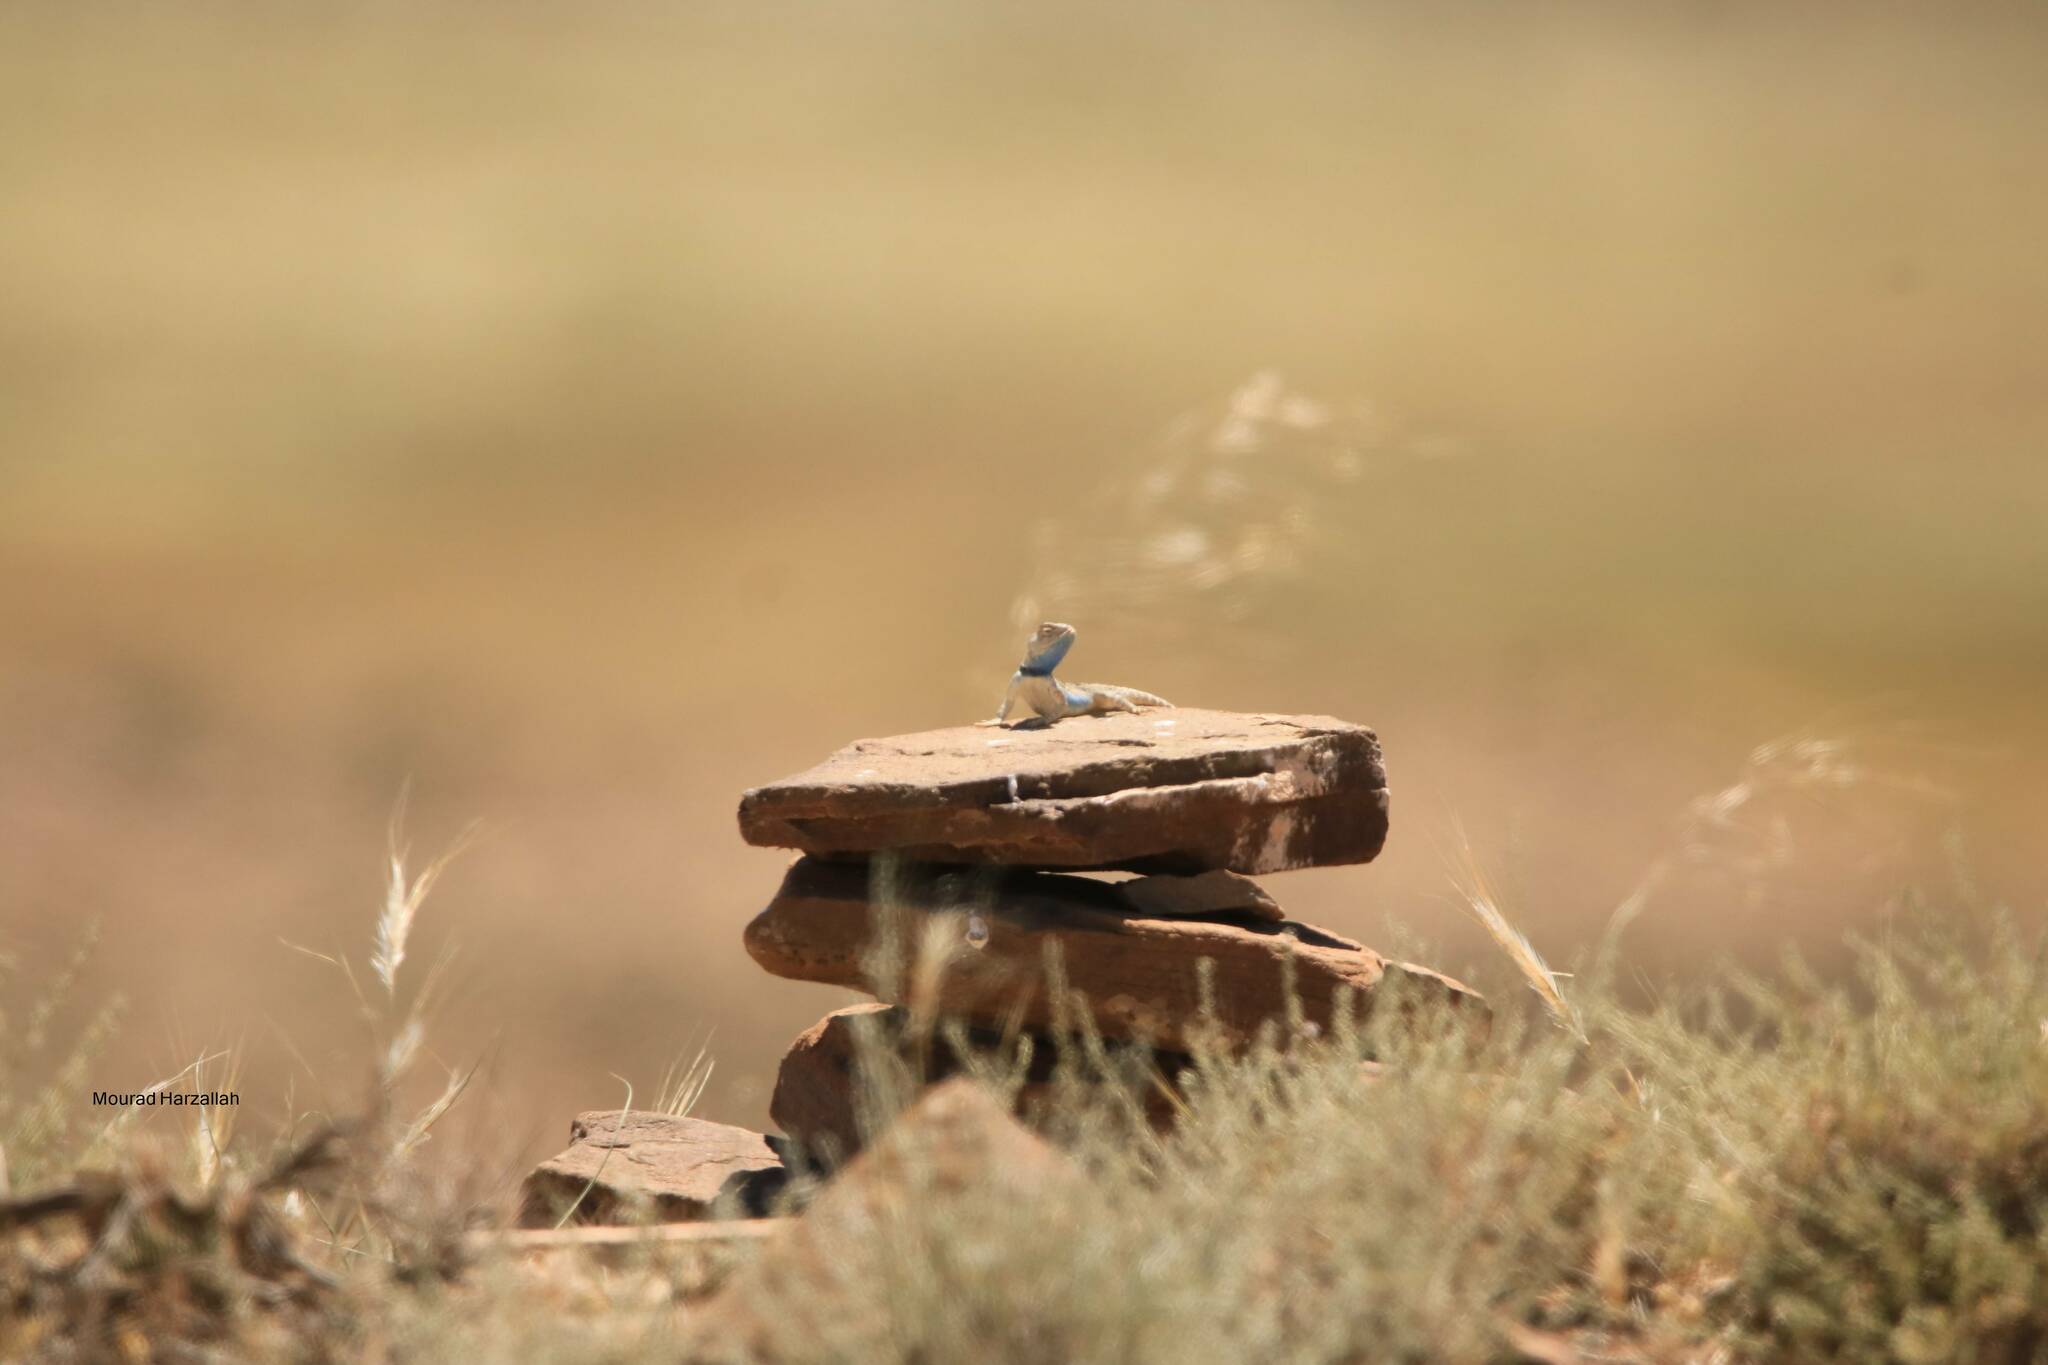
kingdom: Animalia
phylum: Chordata
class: Squamata
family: Agamidae
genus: Trapelus
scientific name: Trapelus mutabilis
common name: Desert agama
